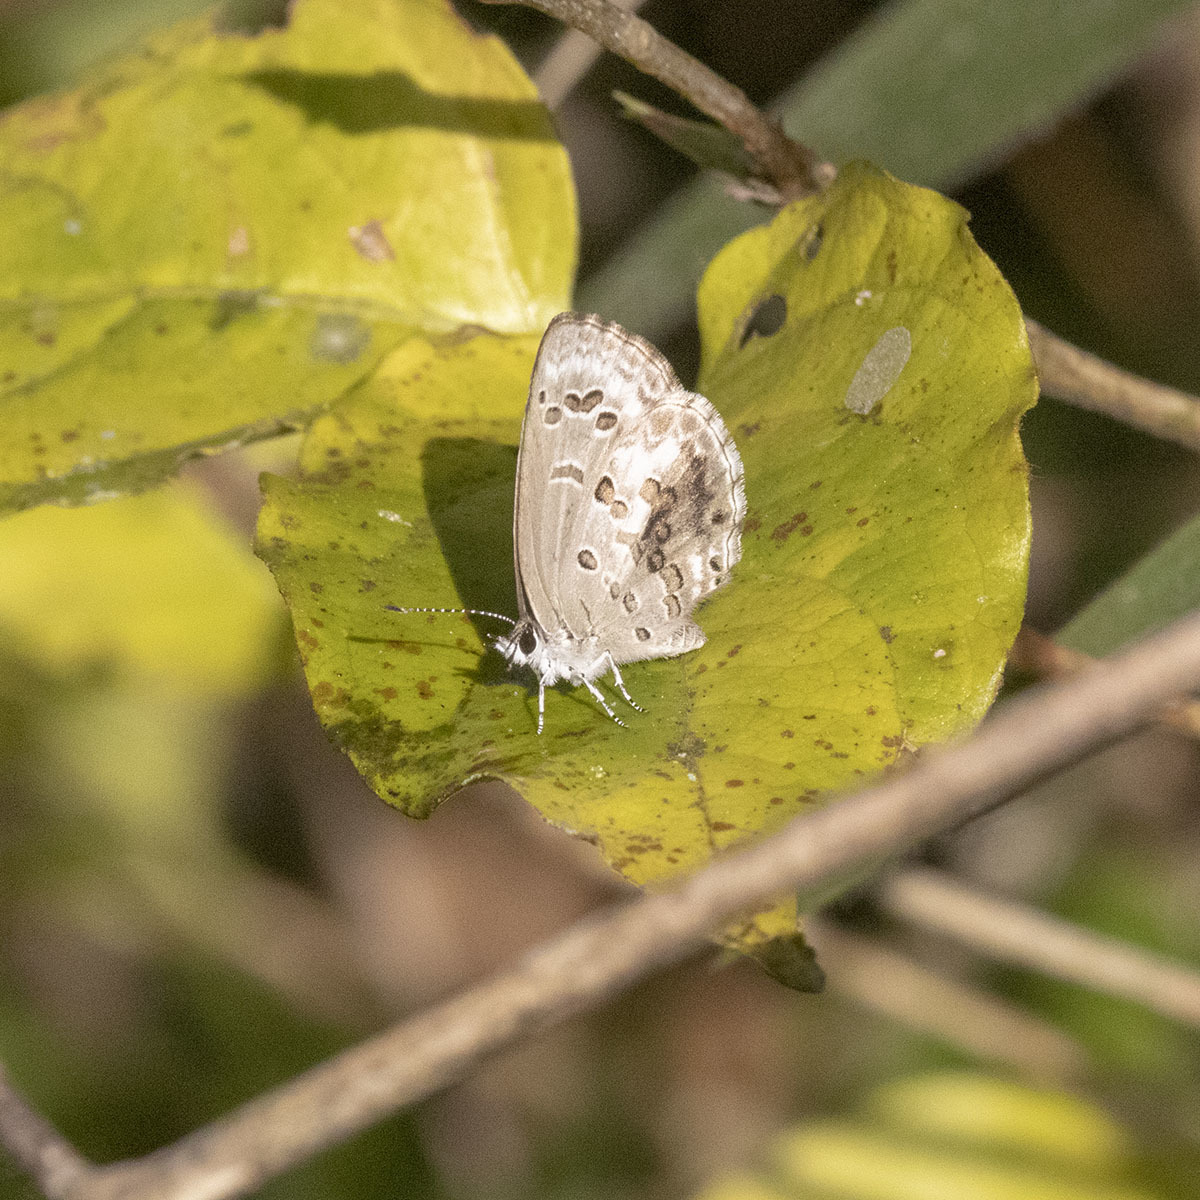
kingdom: Animalia
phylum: Arthropoda
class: Insecta
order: Lepidoptera
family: Lycaenidae
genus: Chilades
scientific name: Chilades laius
